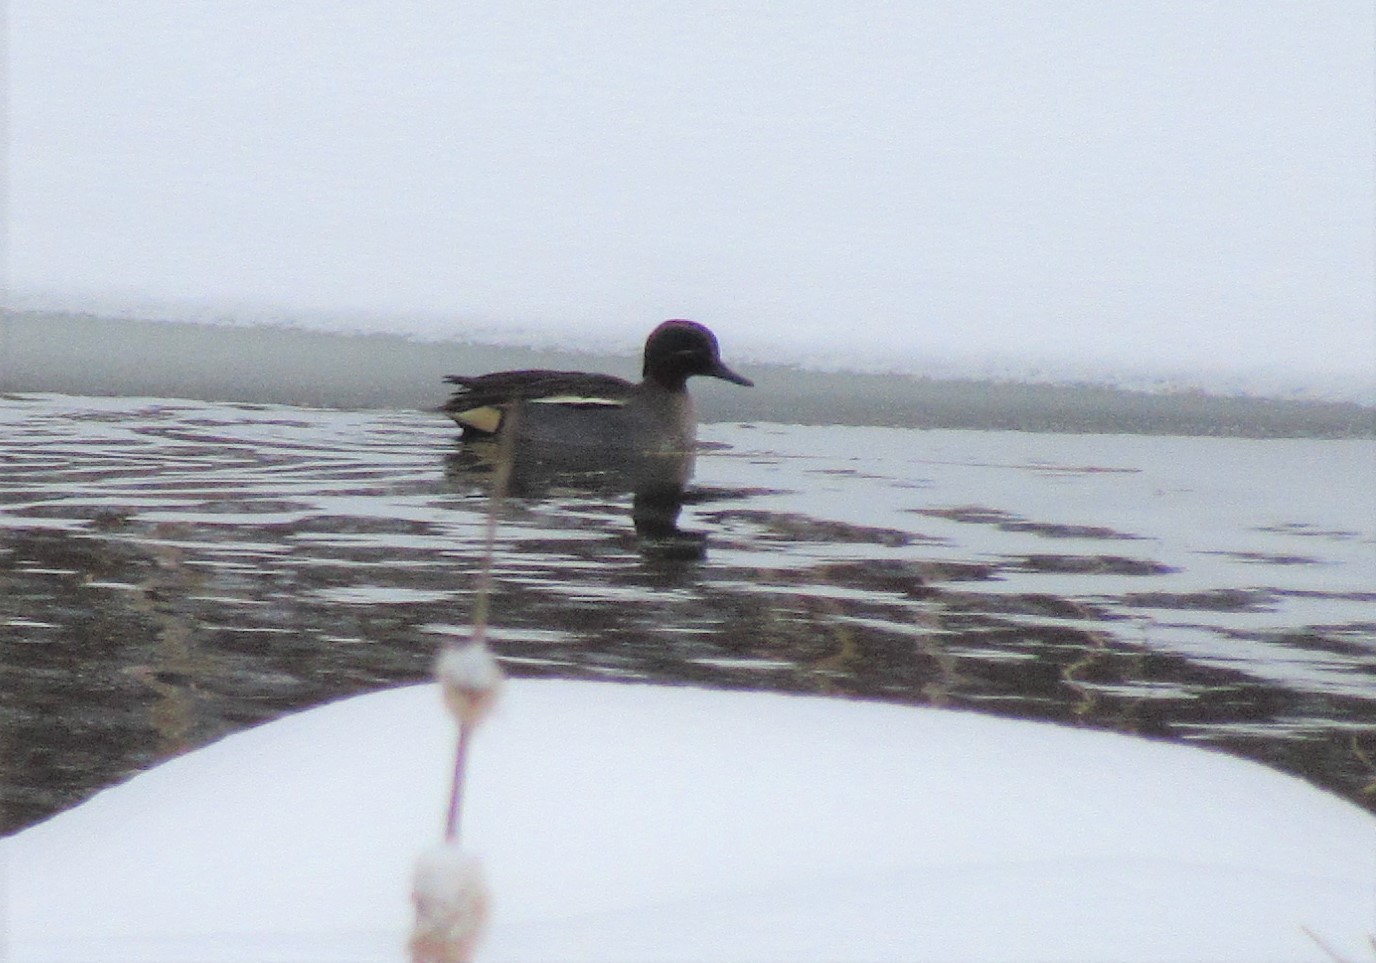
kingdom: Animalia
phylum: Chordata
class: Aves
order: Anseriformes
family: Anatidae
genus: Anas
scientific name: Anas crecca
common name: Eurasian teal
